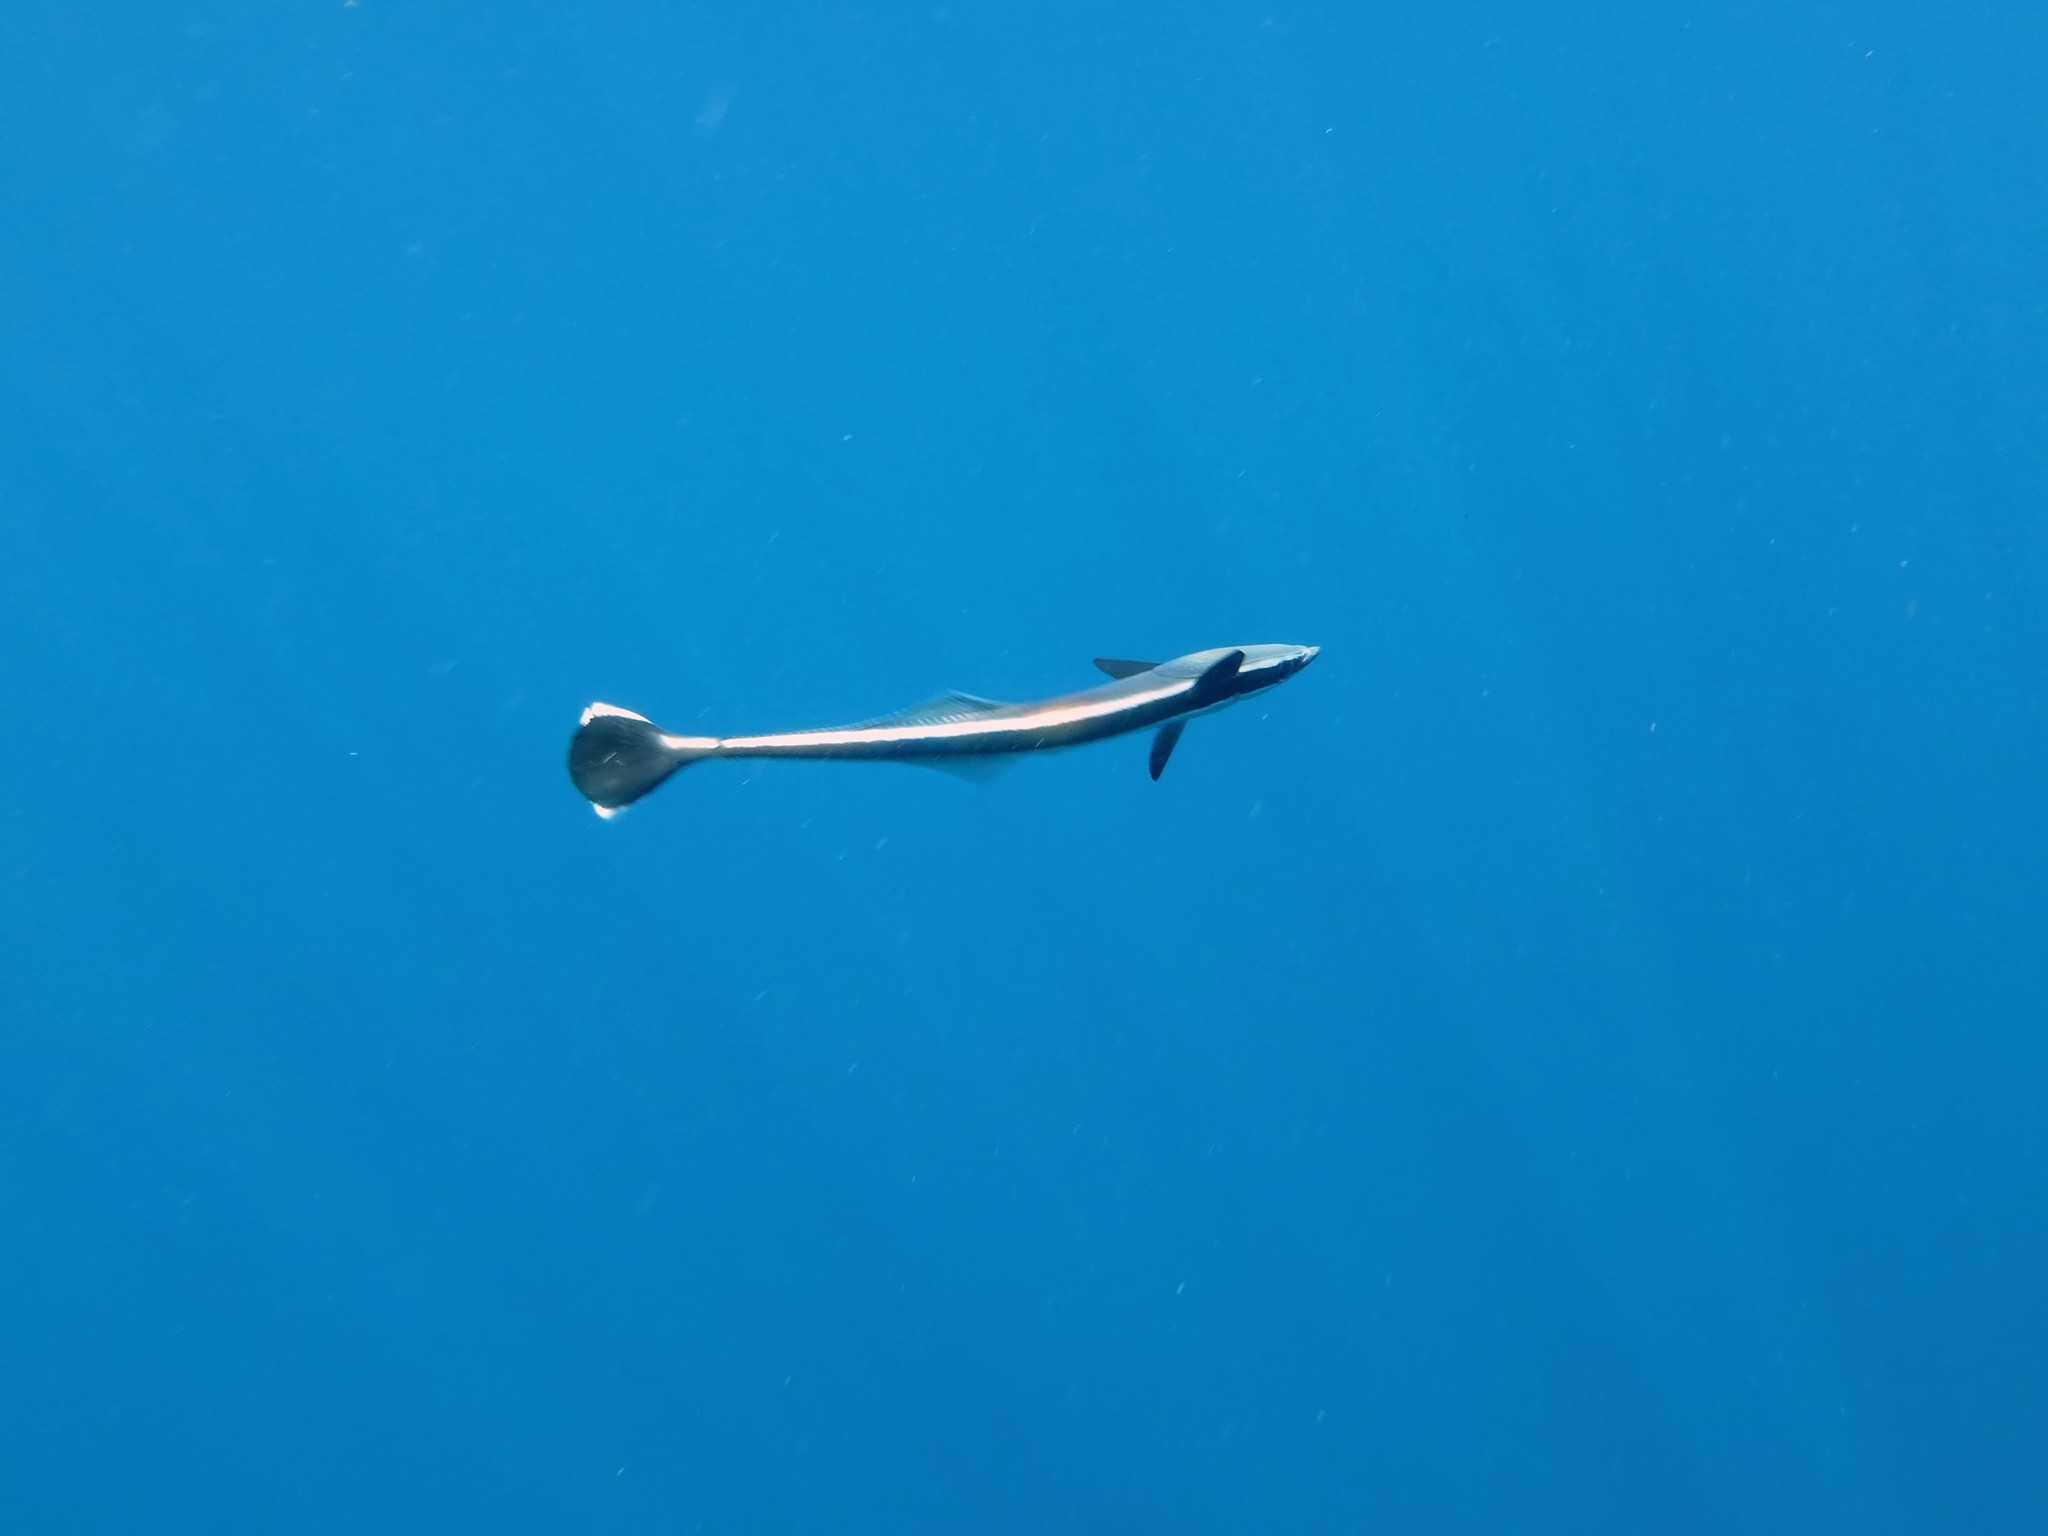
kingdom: Animalia
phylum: Chordata
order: Perciformes
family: Echeneidae
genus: Echeneis
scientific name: Echeneis naucrates
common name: Sharksucker
